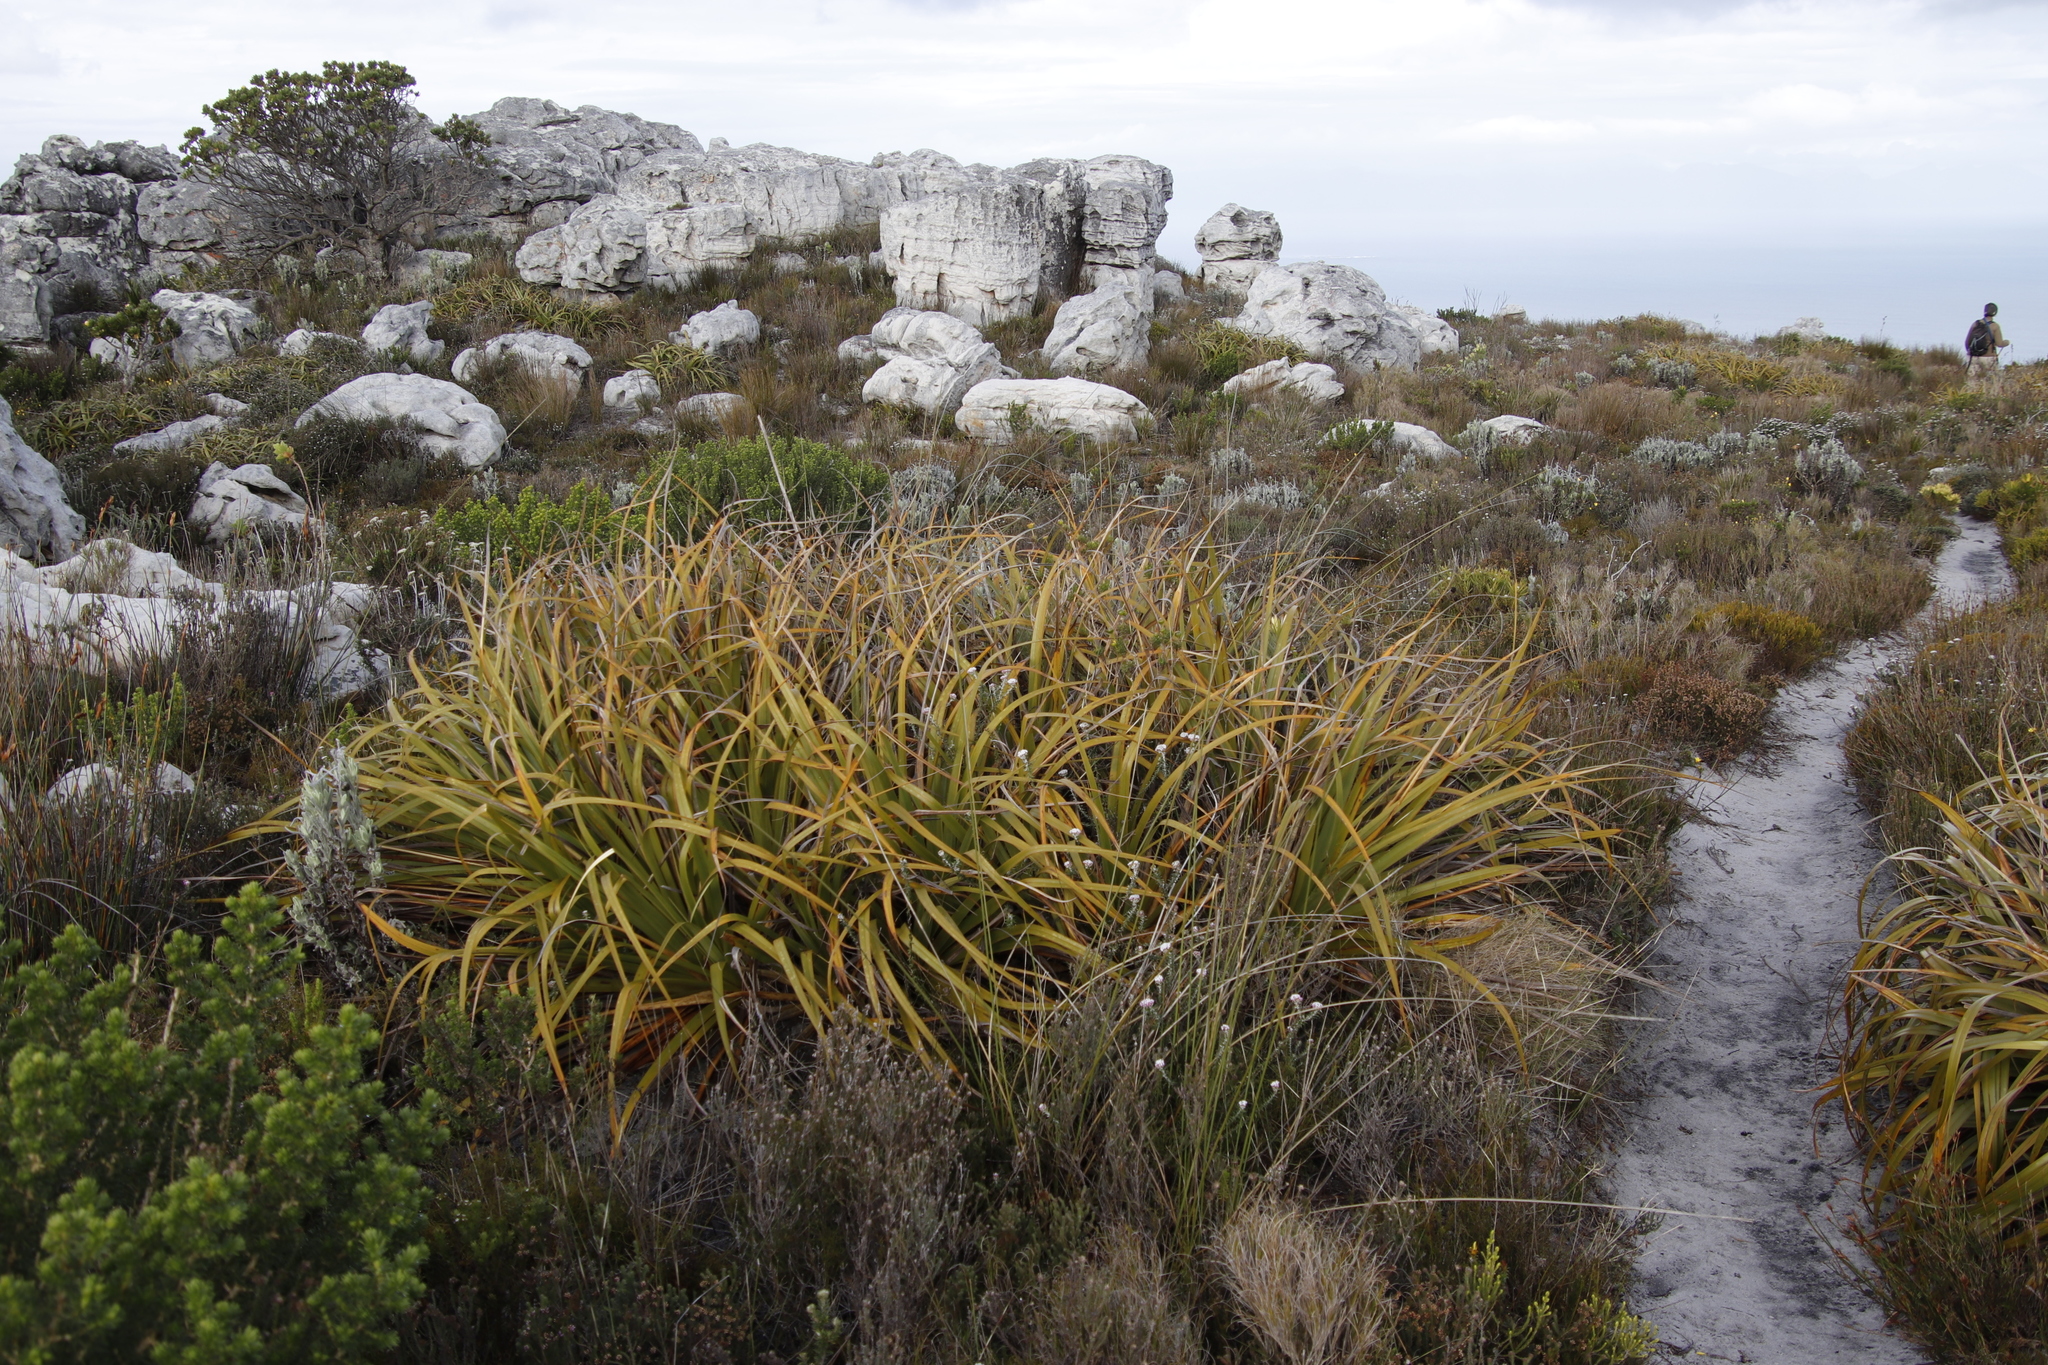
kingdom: Plantae
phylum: Tracheophyta
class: Liliopsida
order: Poales
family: Cyperaceae
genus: Tetraria
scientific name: Tetraria thermalis
